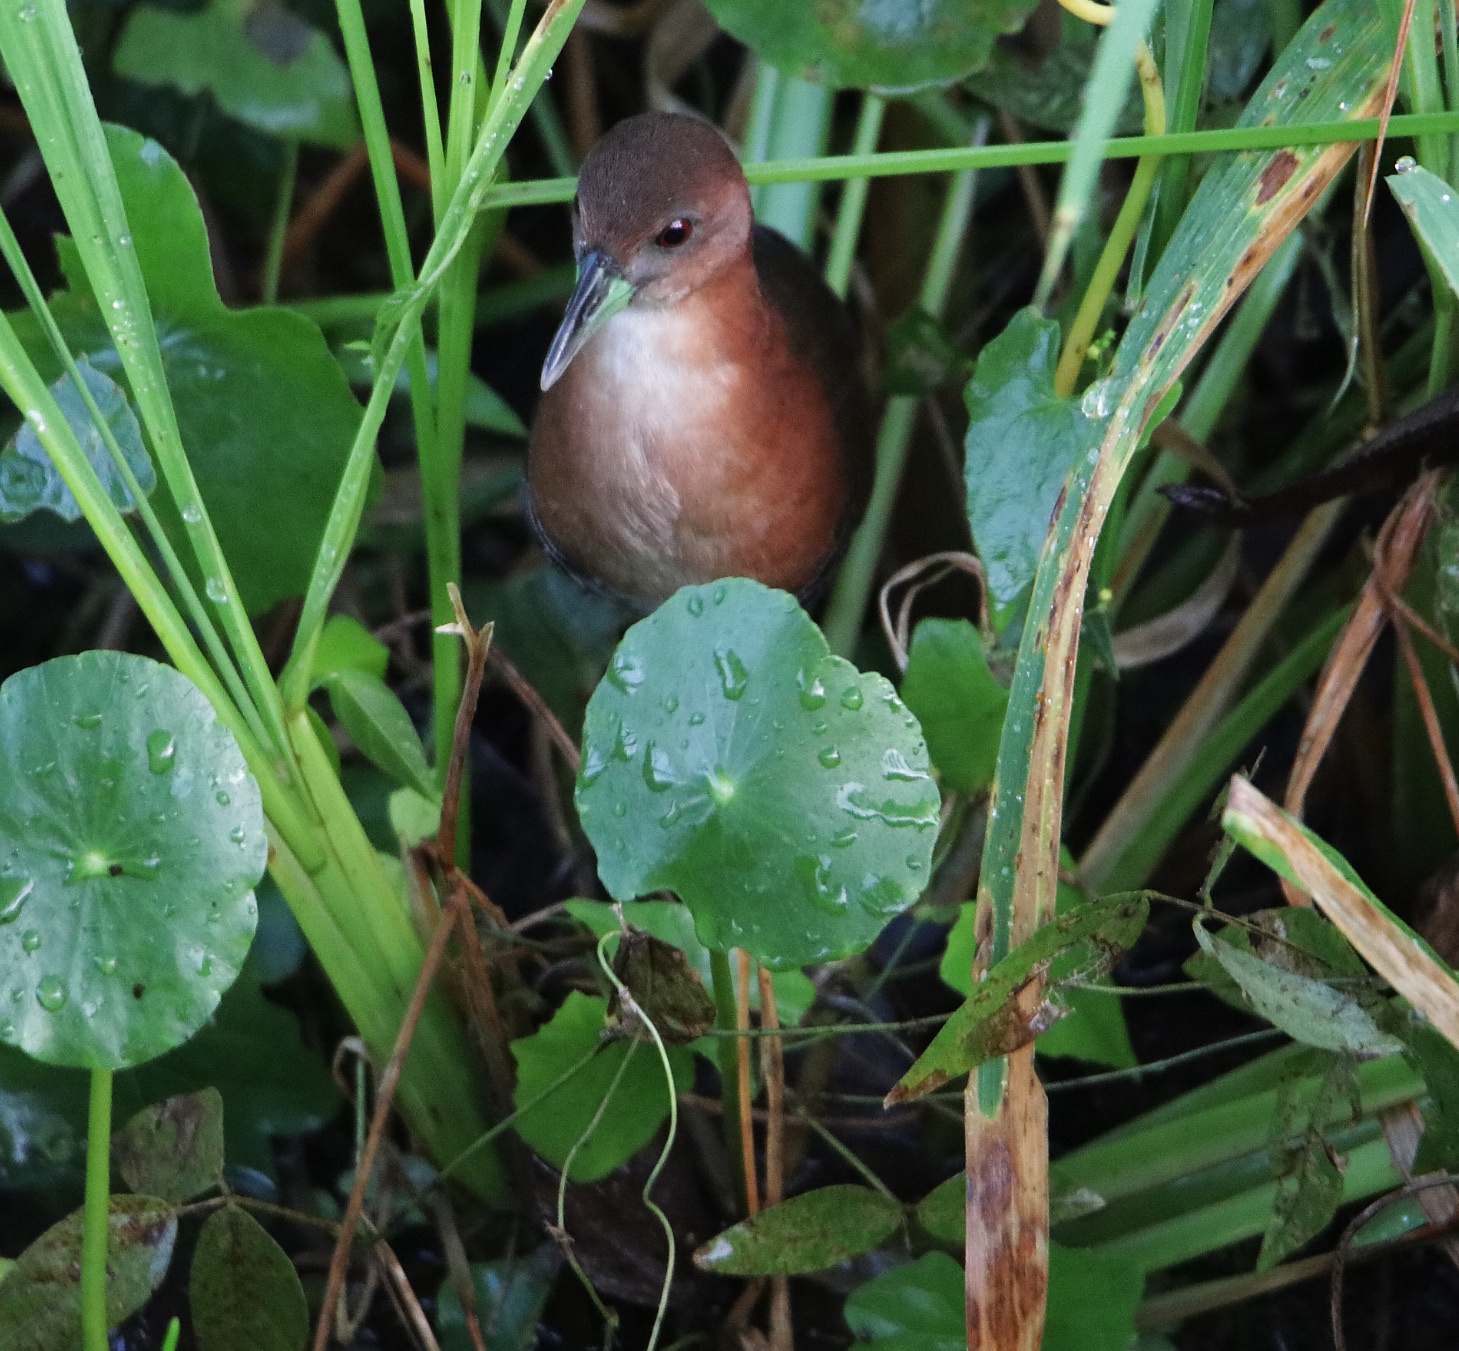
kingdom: Animalia
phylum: Chordata
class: Aves
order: Gruiformes
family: Rallidae
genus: Laterallus
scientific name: Laterallus albigularis
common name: White-throated crake
